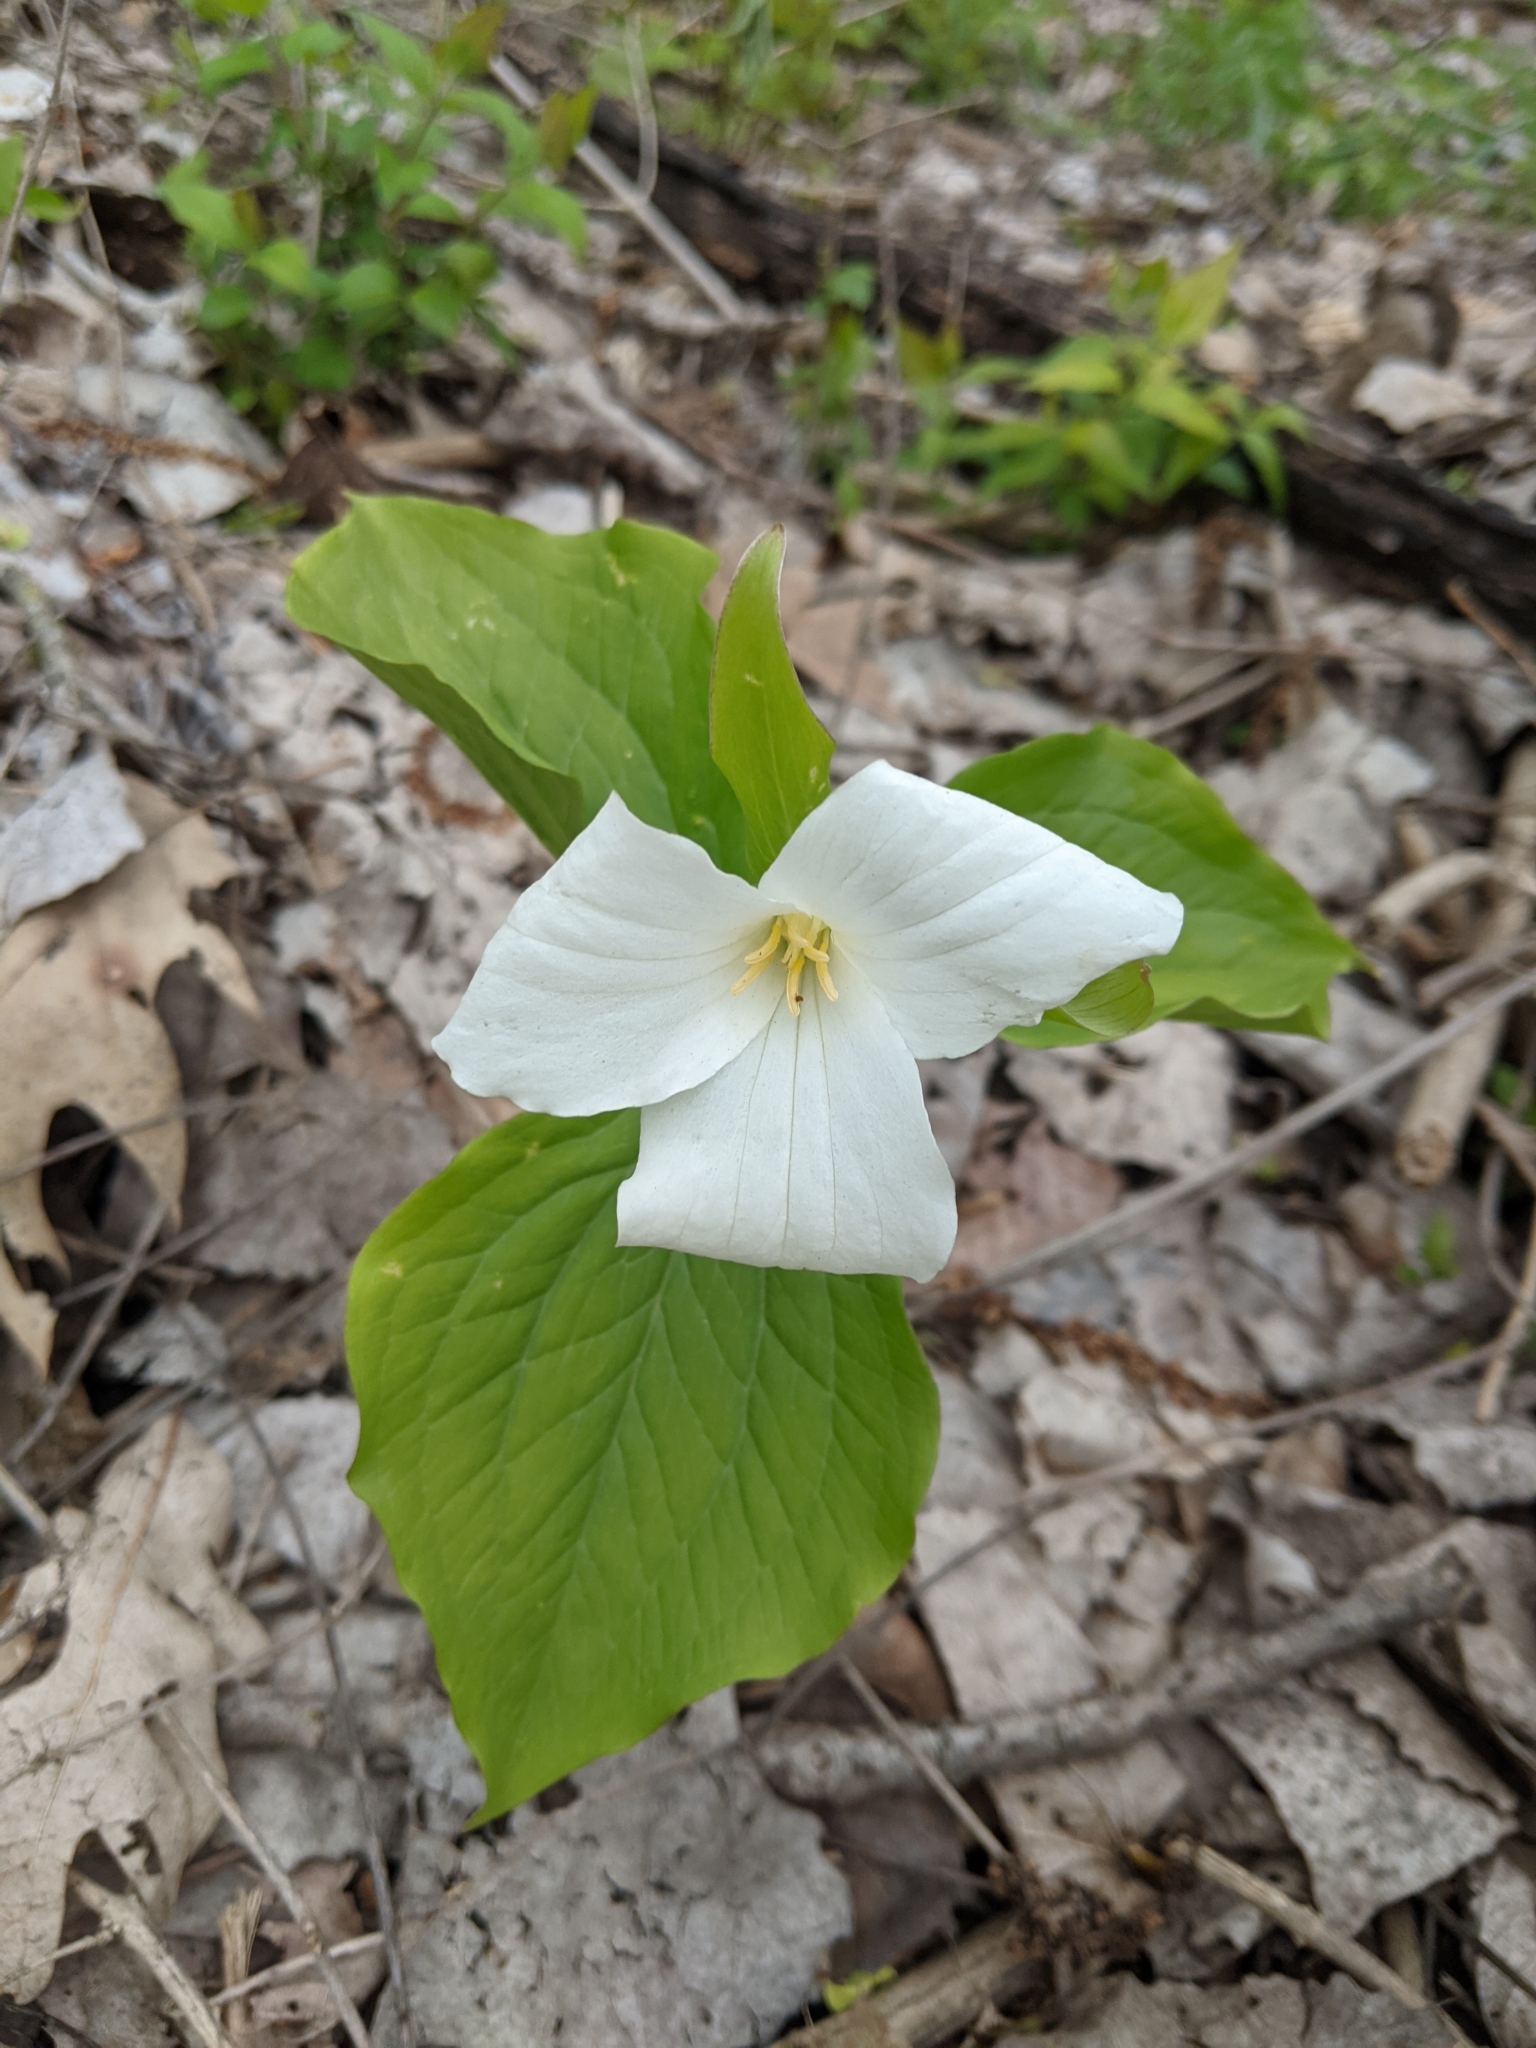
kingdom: Plantae
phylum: Tracheophyta
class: Liliopsida
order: Liliales
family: Melanthiaceae
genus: Trillium
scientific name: Trillium grandiflorum
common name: Great white trillium
